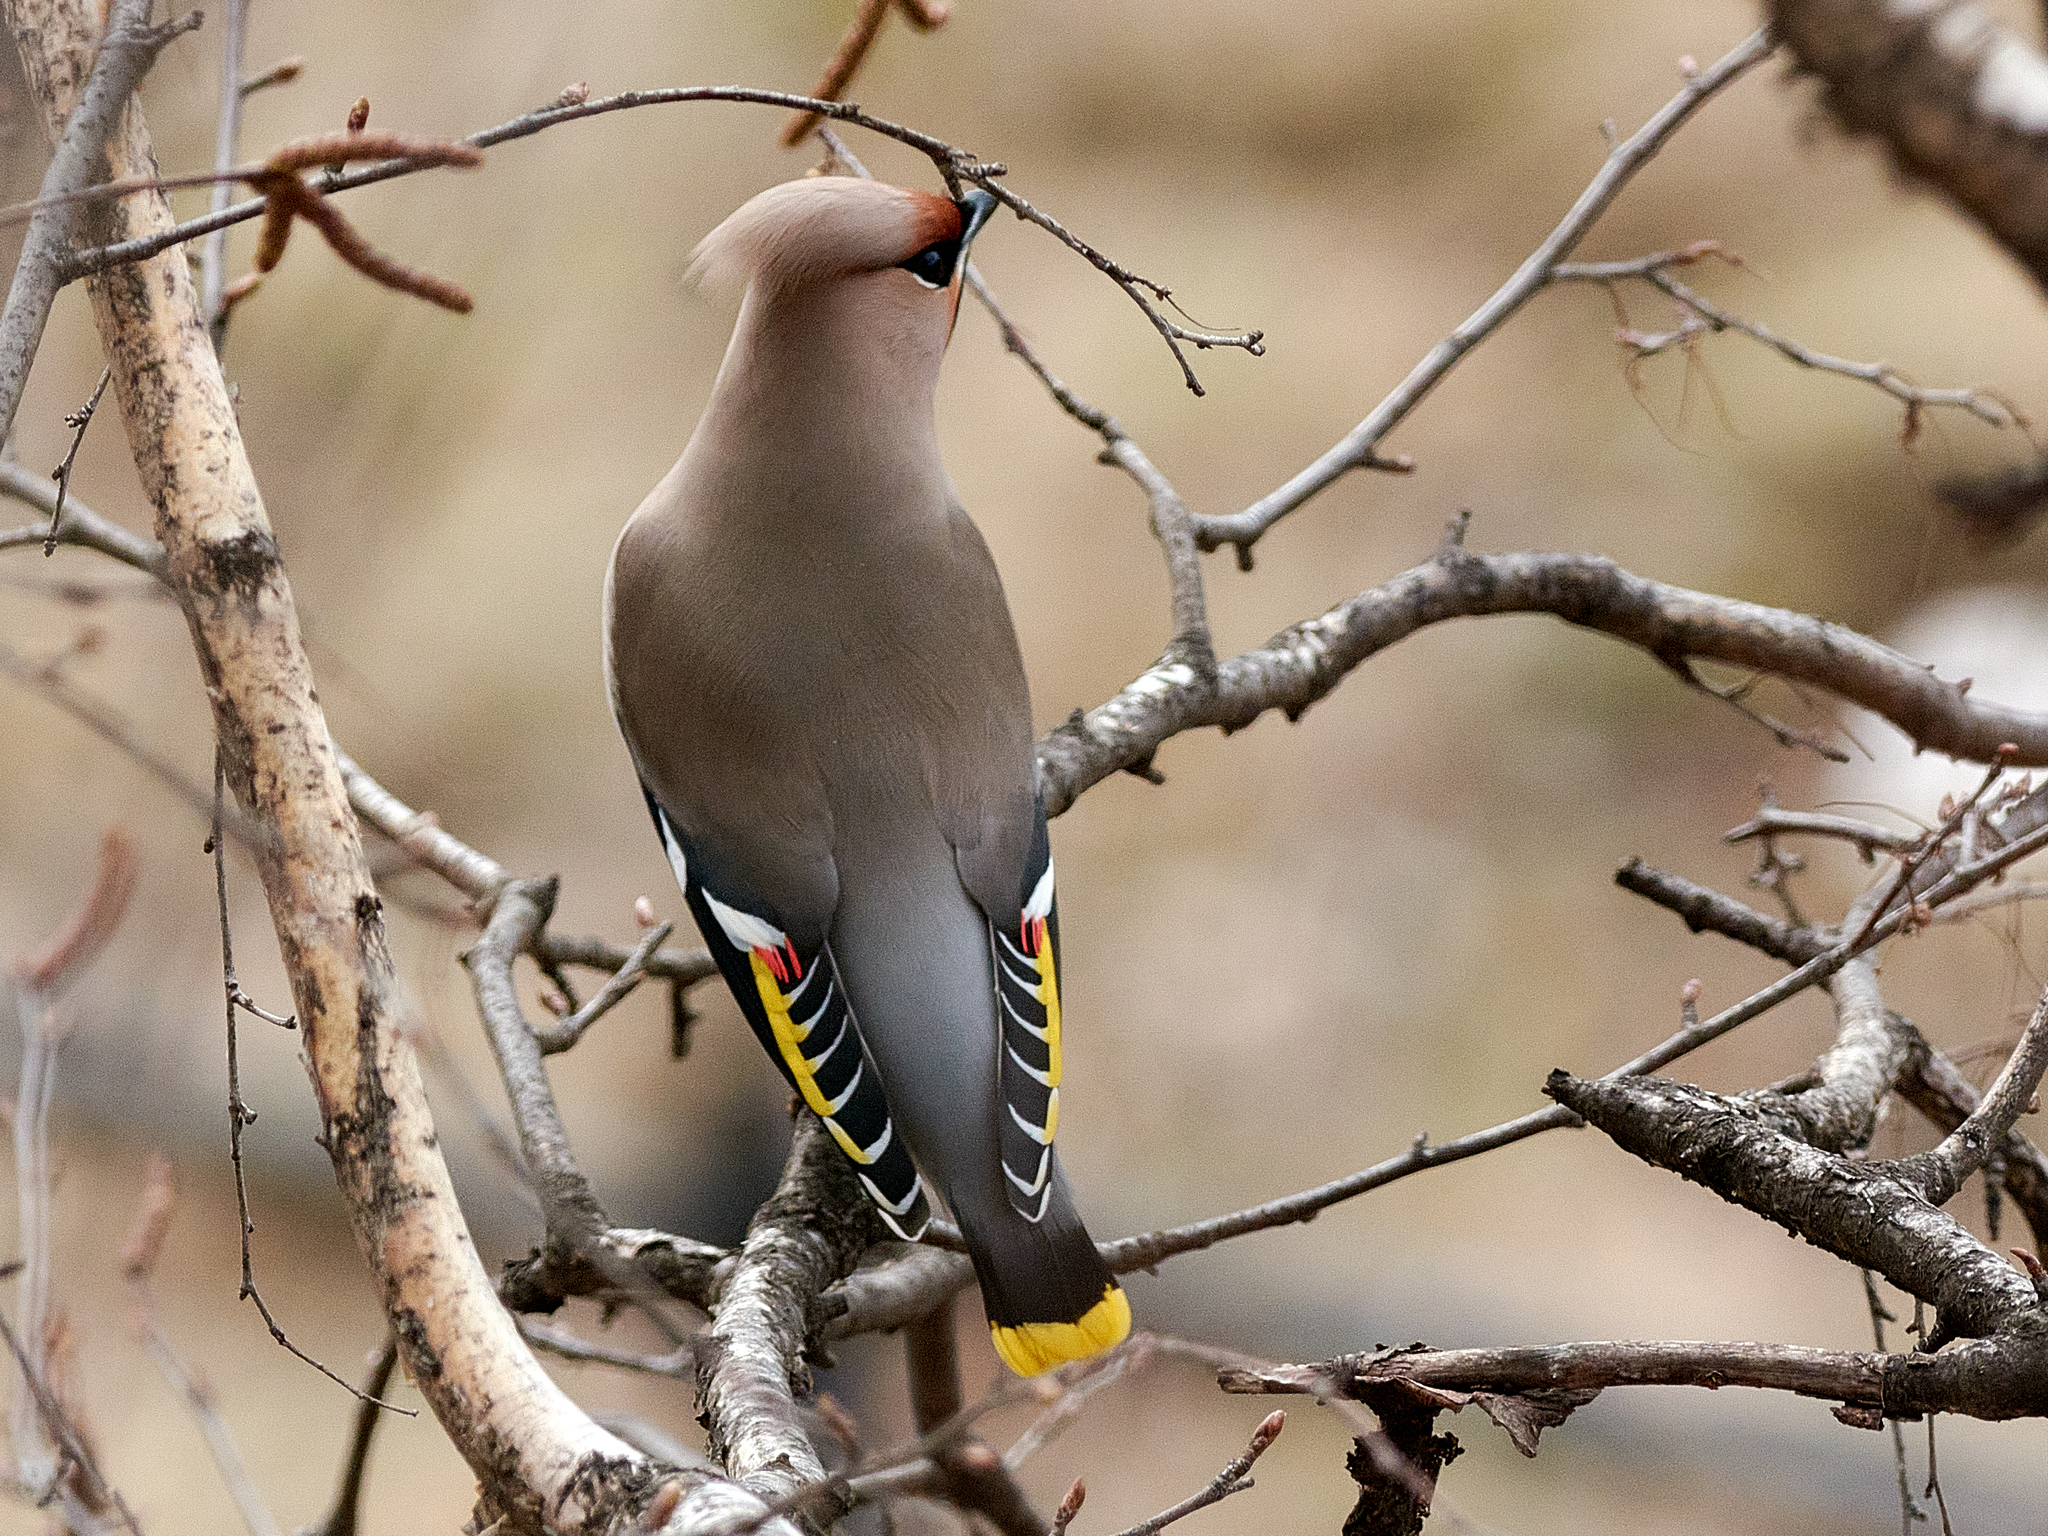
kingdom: Animalia
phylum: Chordata
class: Aves
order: Passeriformes
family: Bombycillidae
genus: Bombycilla
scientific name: Bombycilla garrulus
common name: Bohemian waxwing
